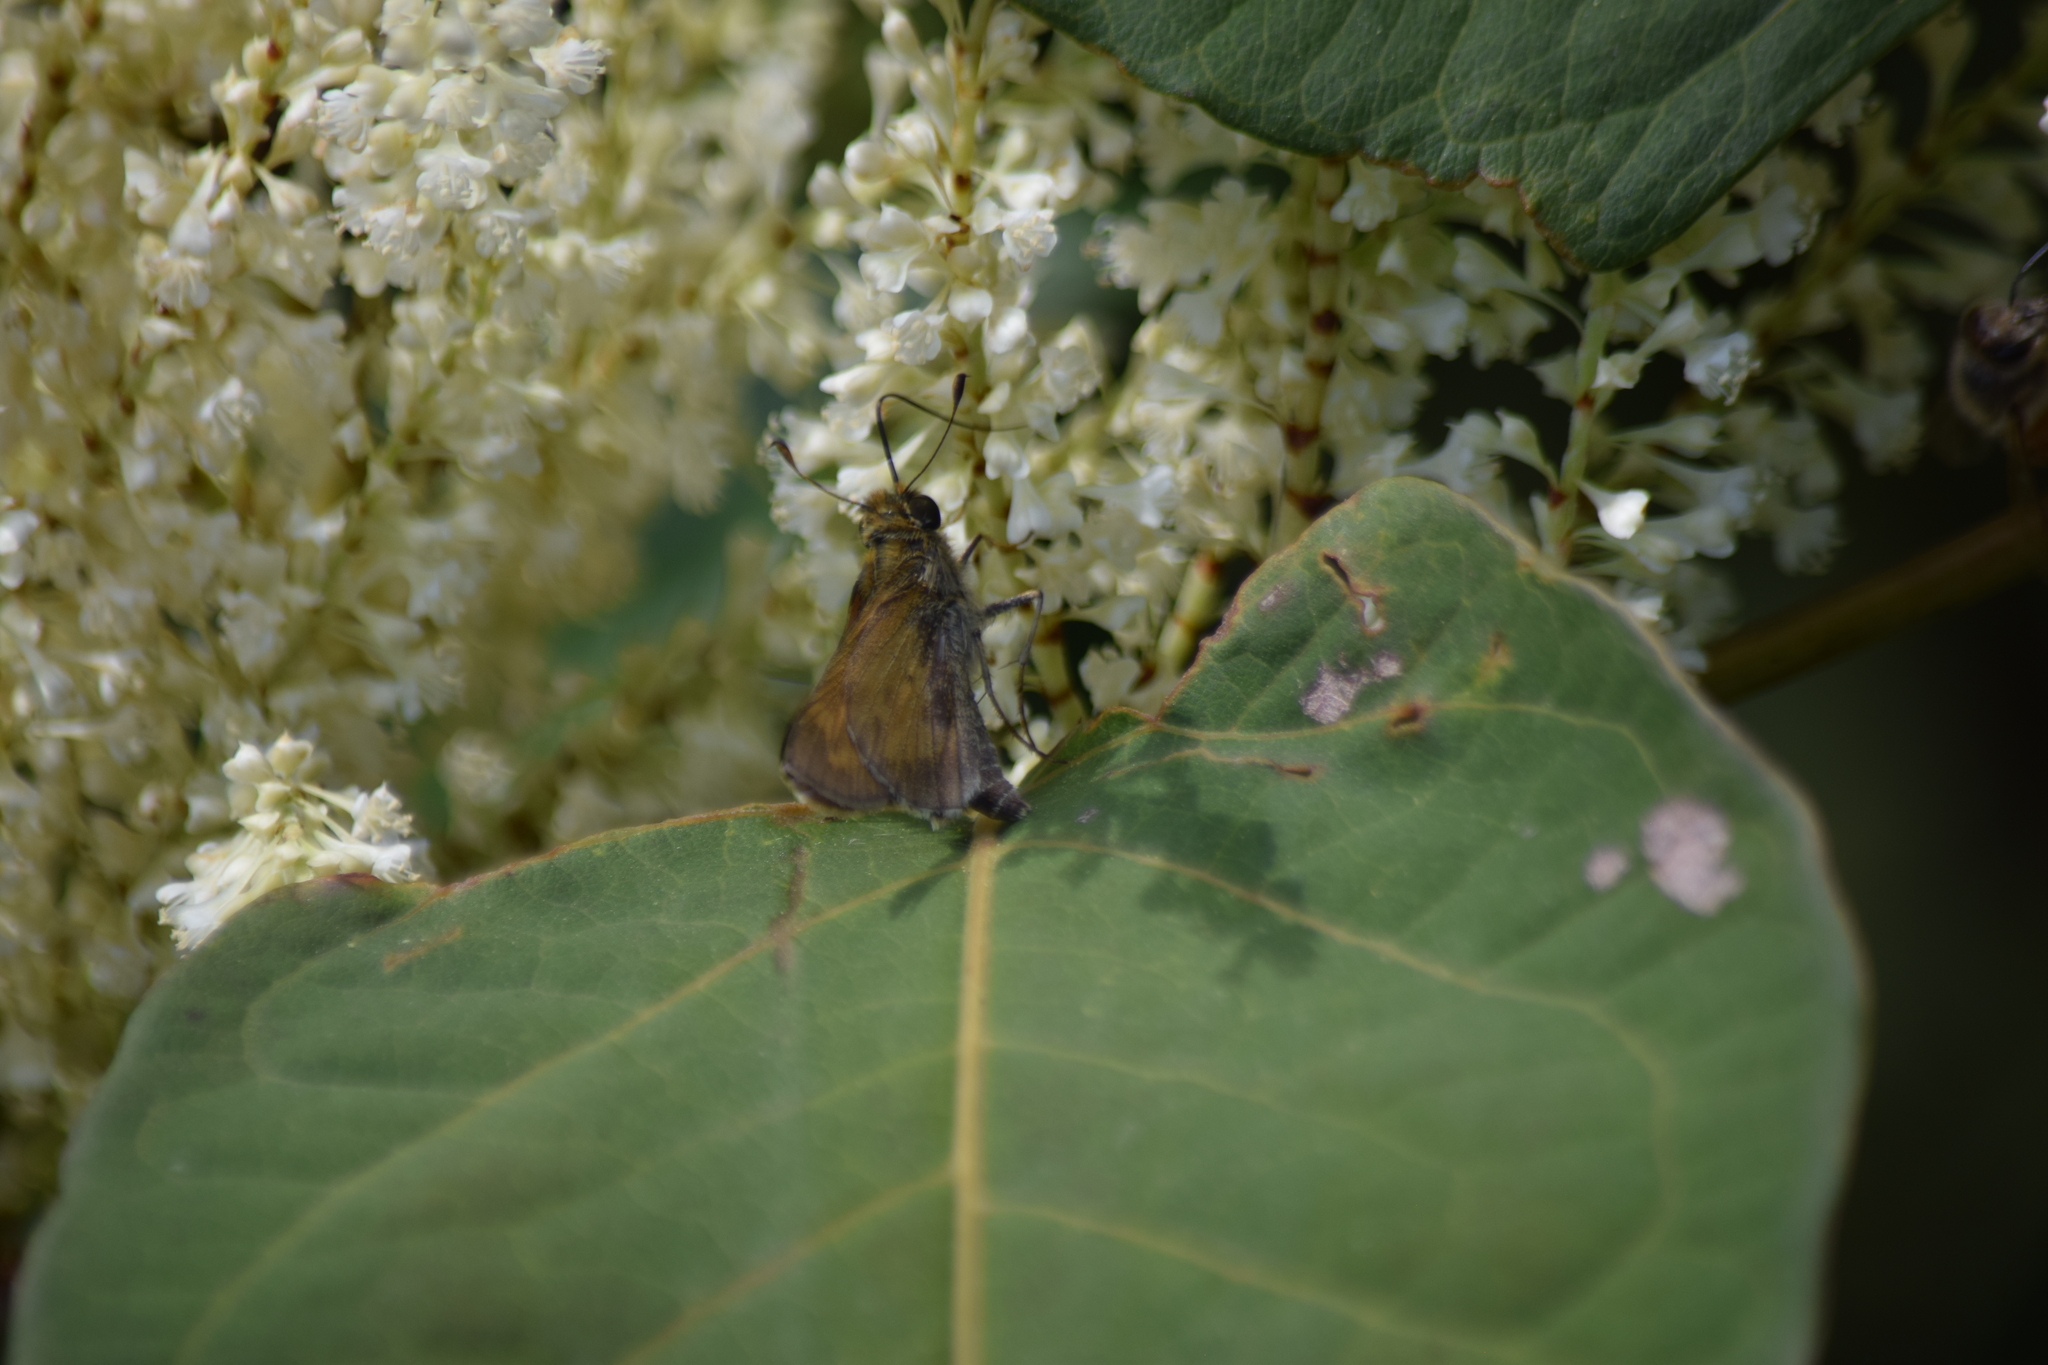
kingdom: Animalia
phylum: Arthropoda
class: Insecta
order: Lepidoptera
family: Hesperiidae
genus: Atalopedes
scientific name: Atalopedes
